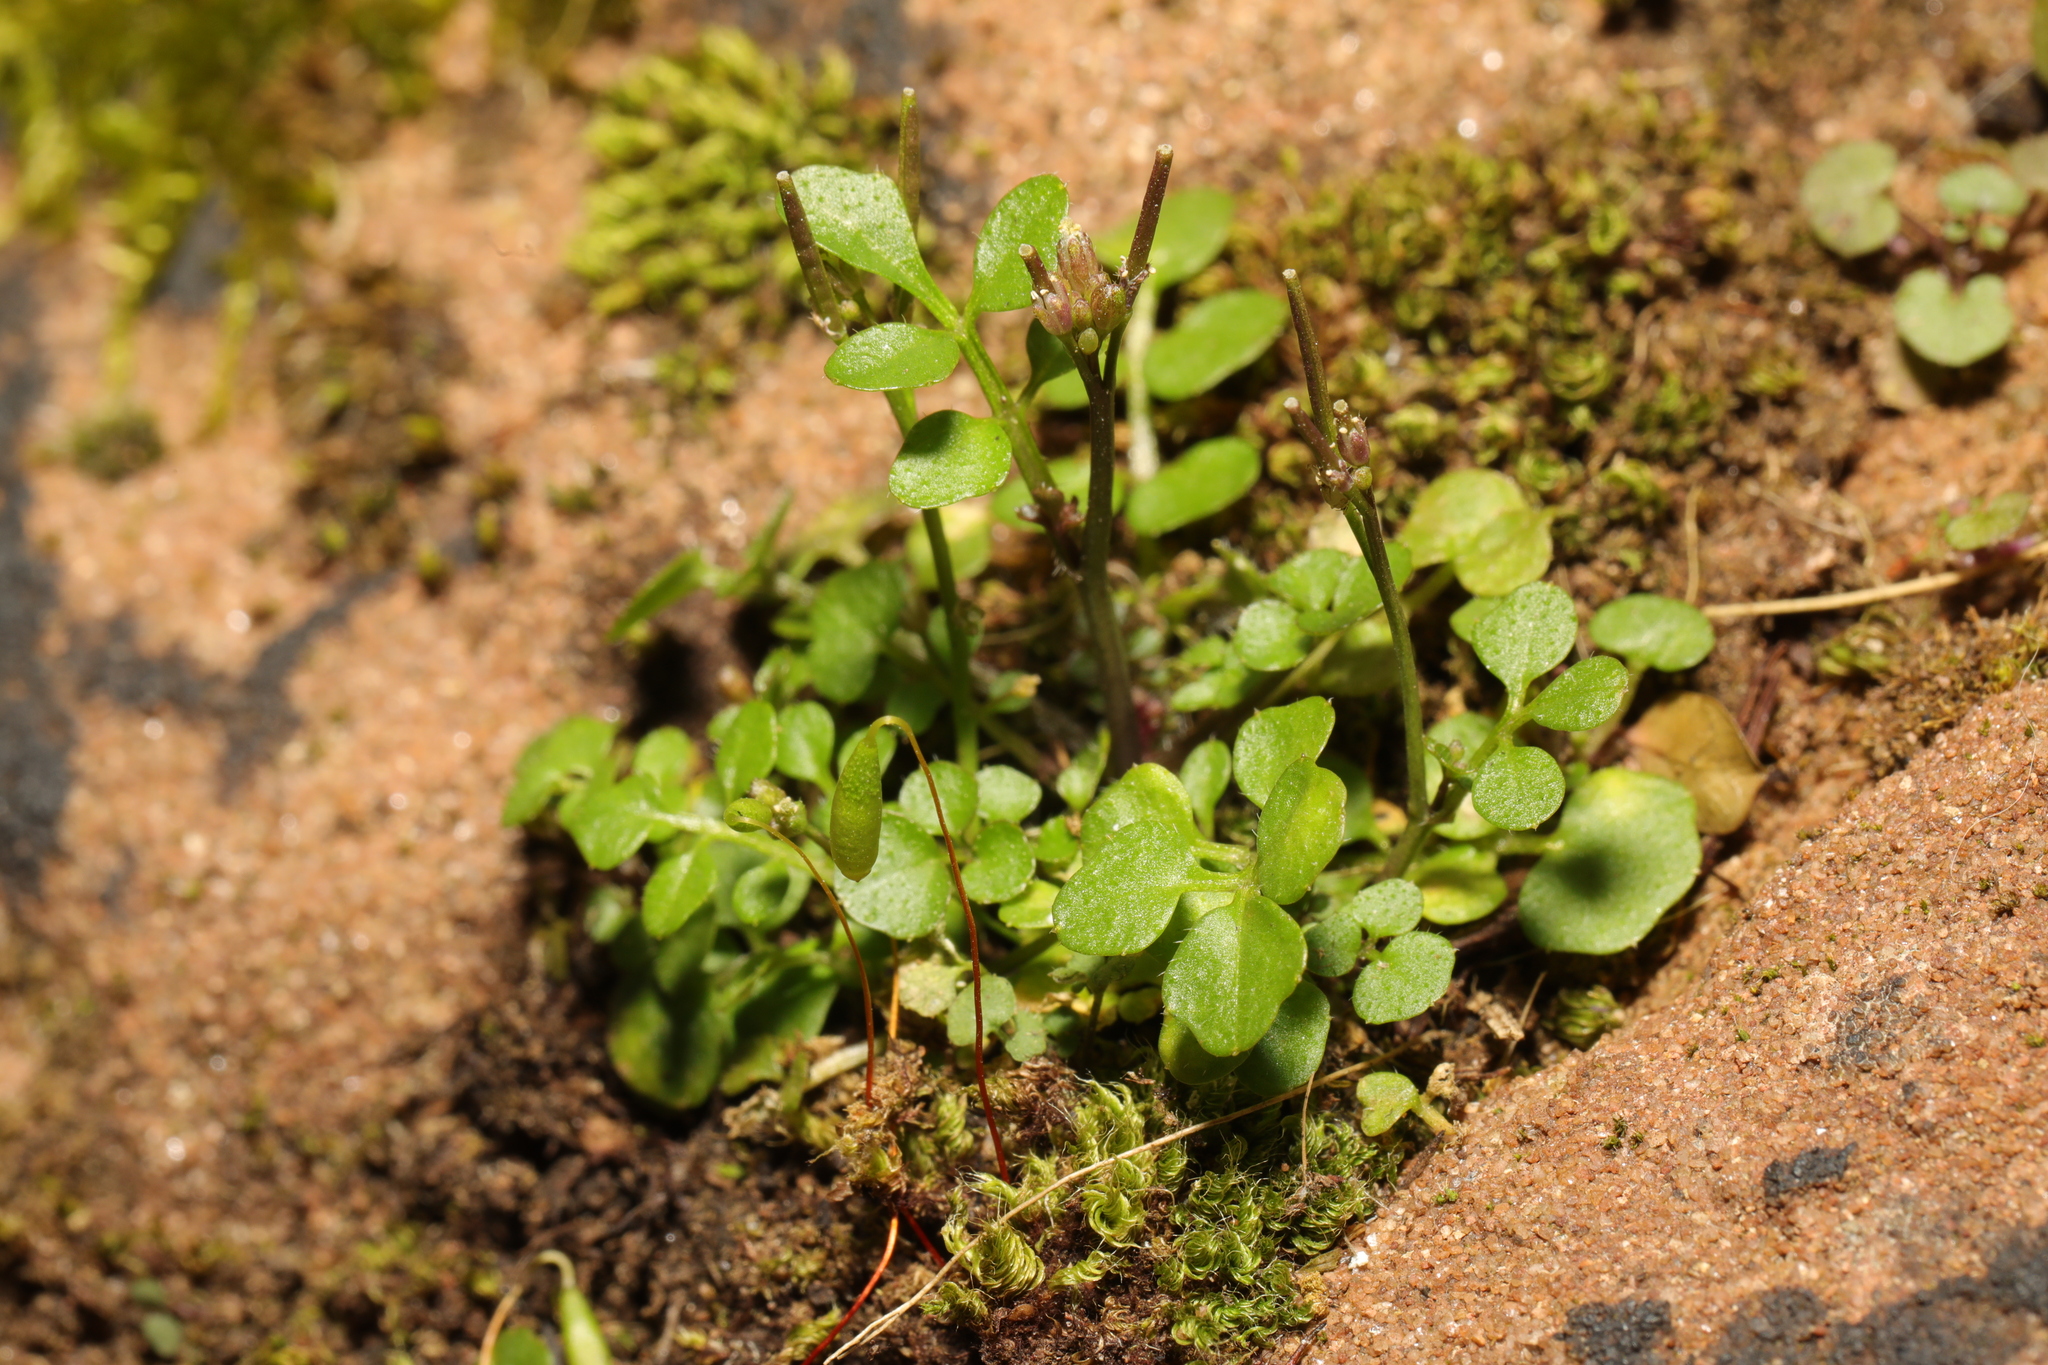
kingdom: Plantae
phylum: Tracheophyta
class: Magnoliopsida
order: Brassicales
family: Brassicaceae
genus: Cardamine
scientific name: Cardamine hirsuta
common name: Hairy bittercress
